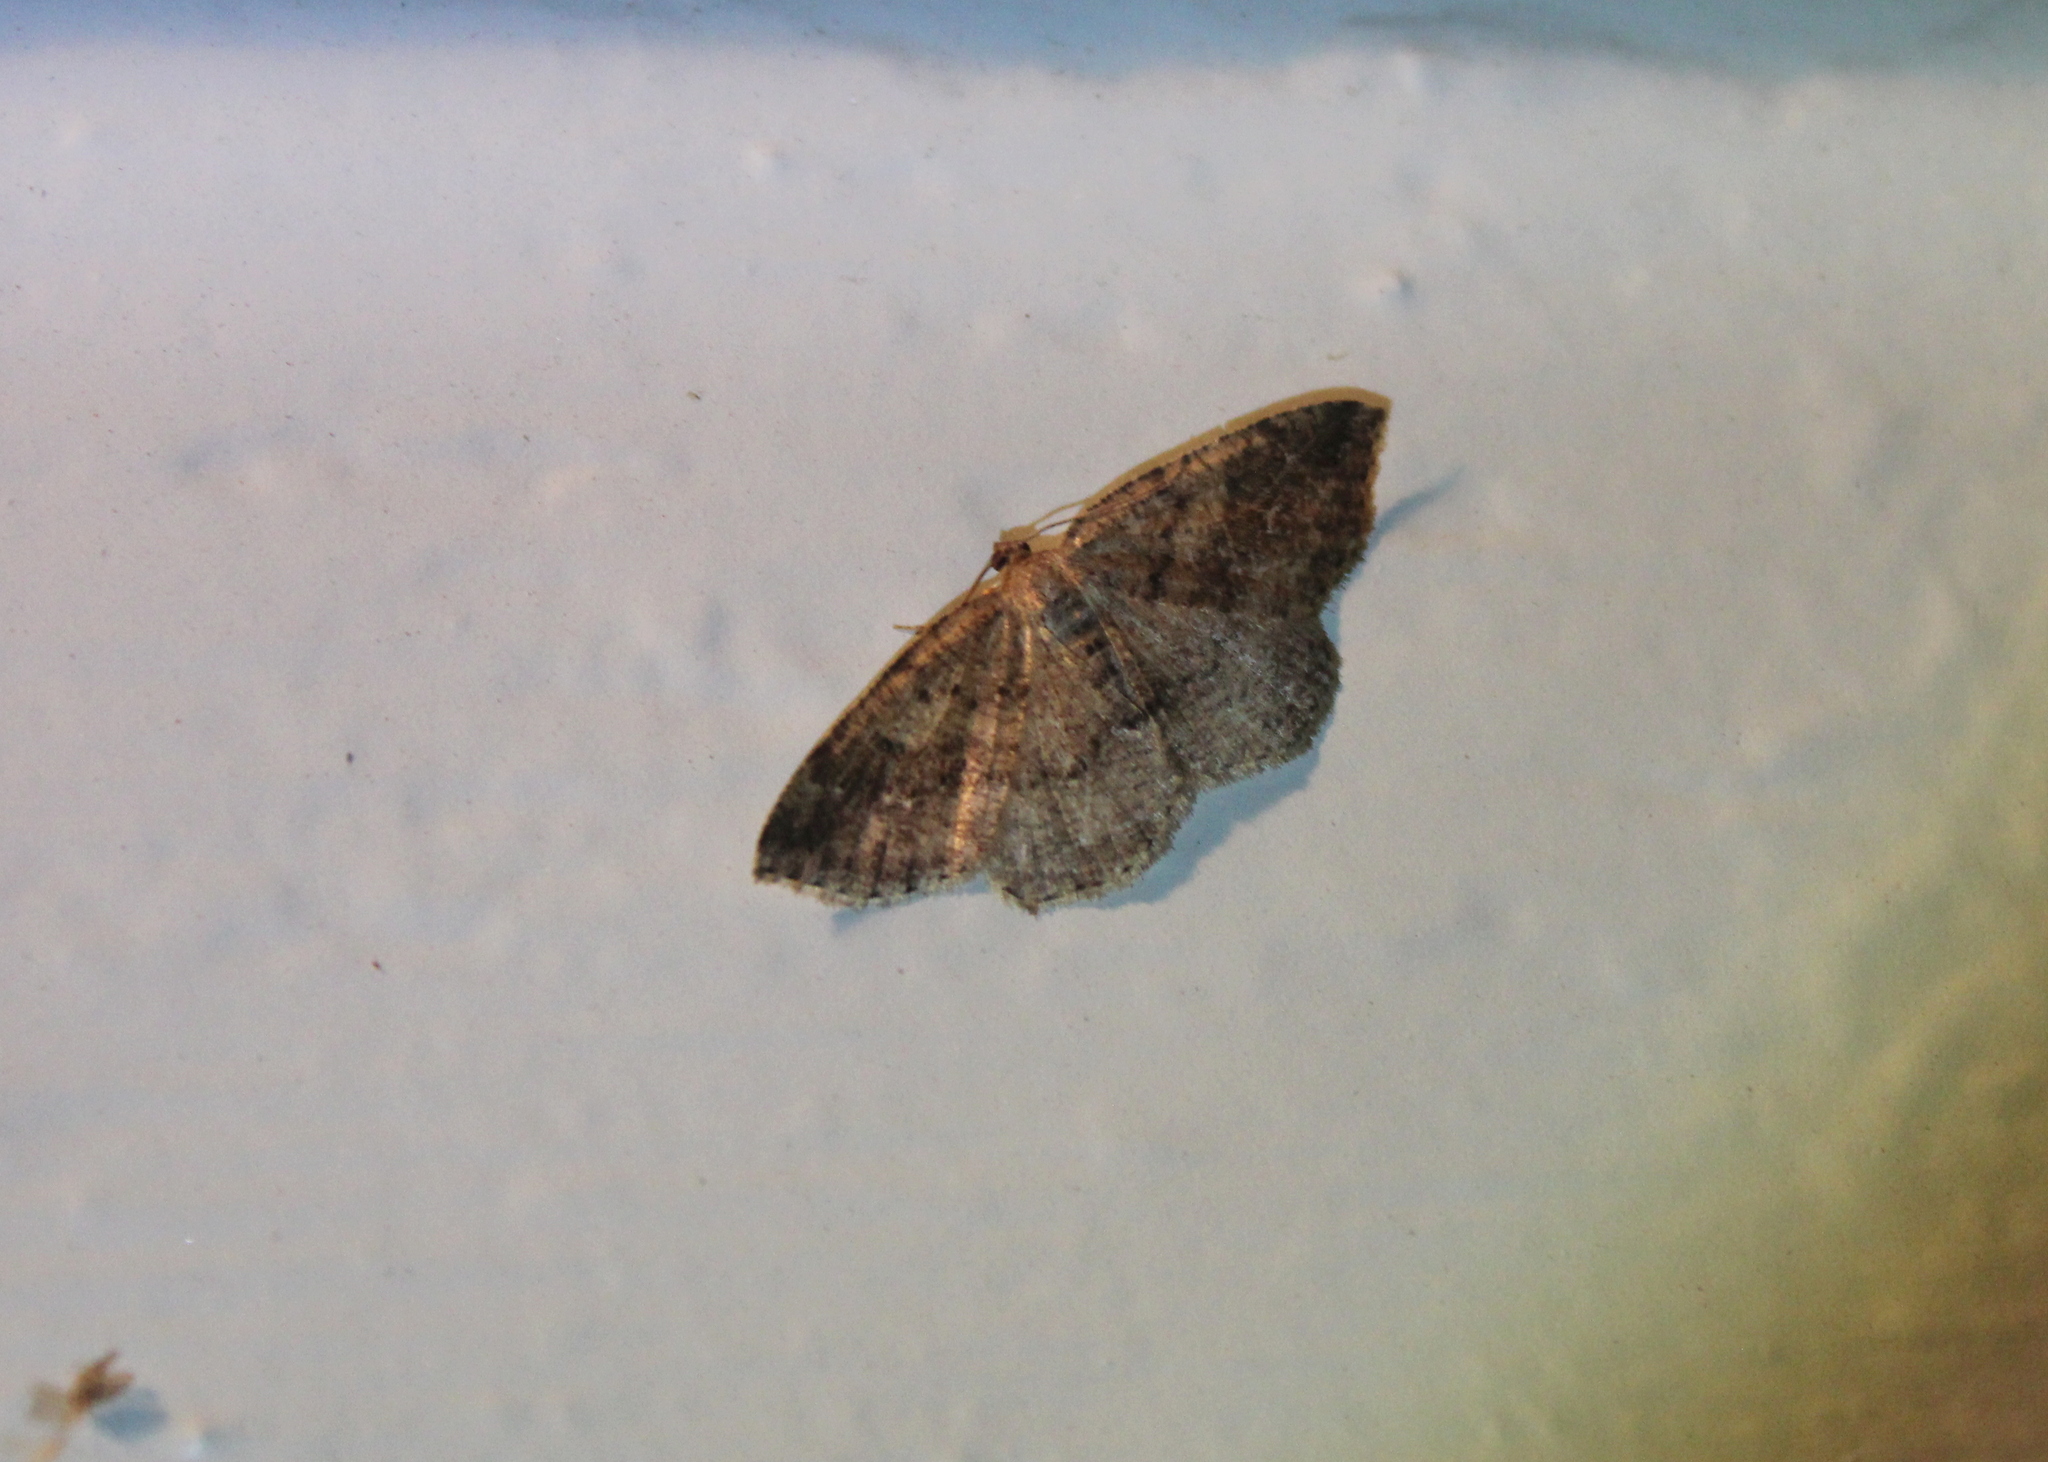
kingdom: Animalia
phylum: Arthropoda
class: Insecta
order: Lepidoptera
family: Geometridae
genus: Homochlodes
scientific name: Homochlodes fritillaria
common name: Pale homochlodes
